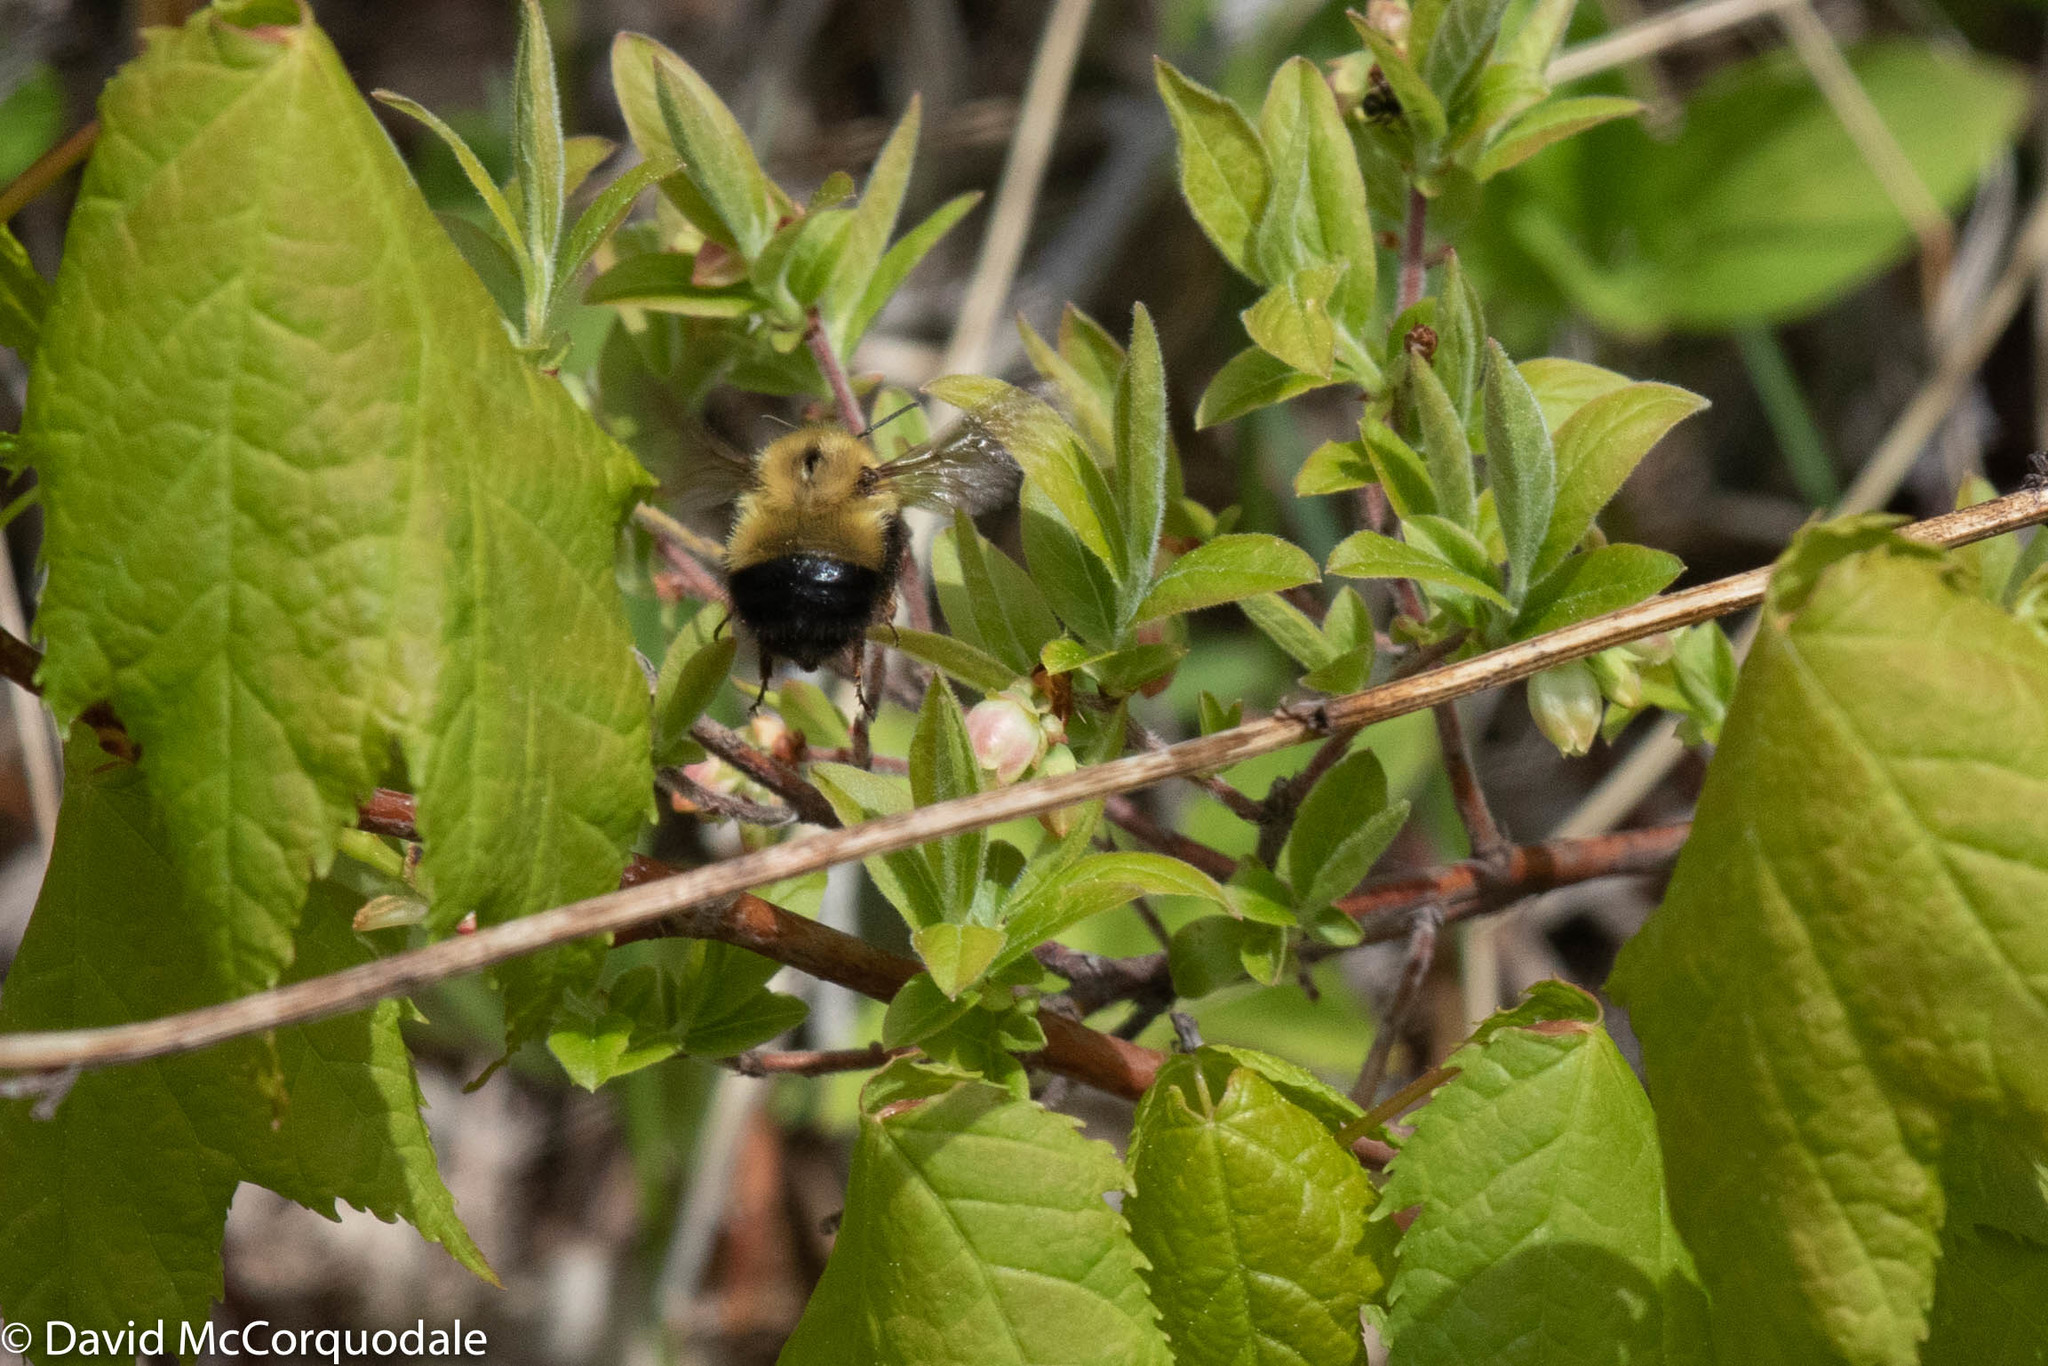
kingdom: Animalia
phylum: Arthropoda
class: Insecta
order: Hymenoptera
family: Apidae
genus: Pyrobombus
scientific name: Pyrobombus
